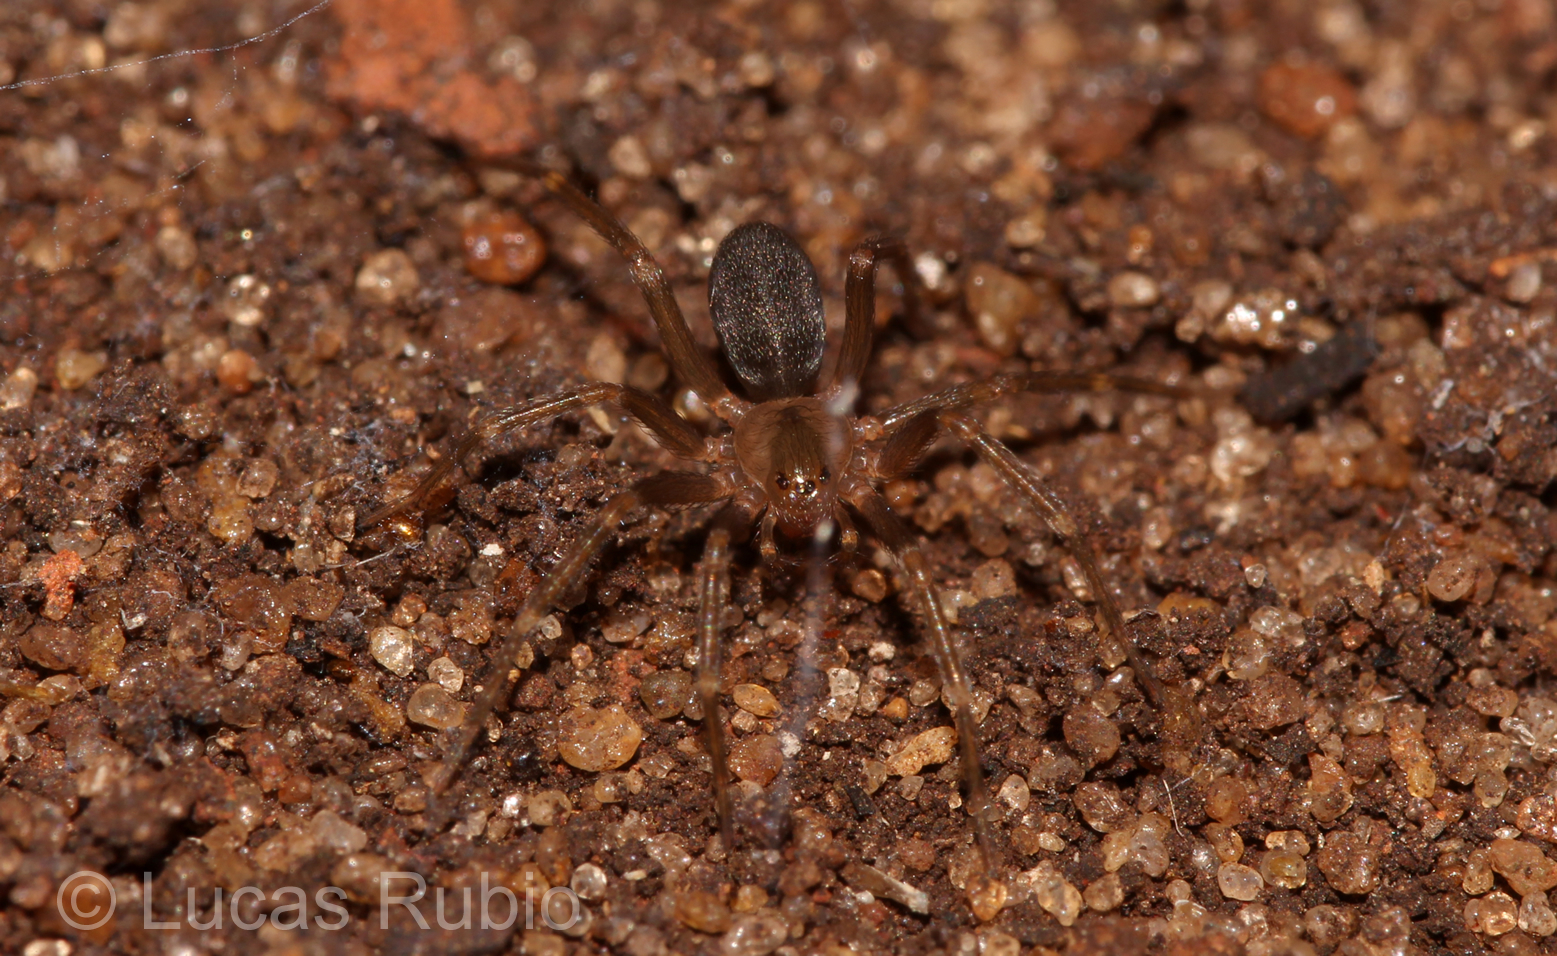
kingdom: Animalia
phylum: Arthropoda
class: Arachnida
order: Araneae
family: Sicariidae
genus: Loxosceles
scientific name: Loxosceles
